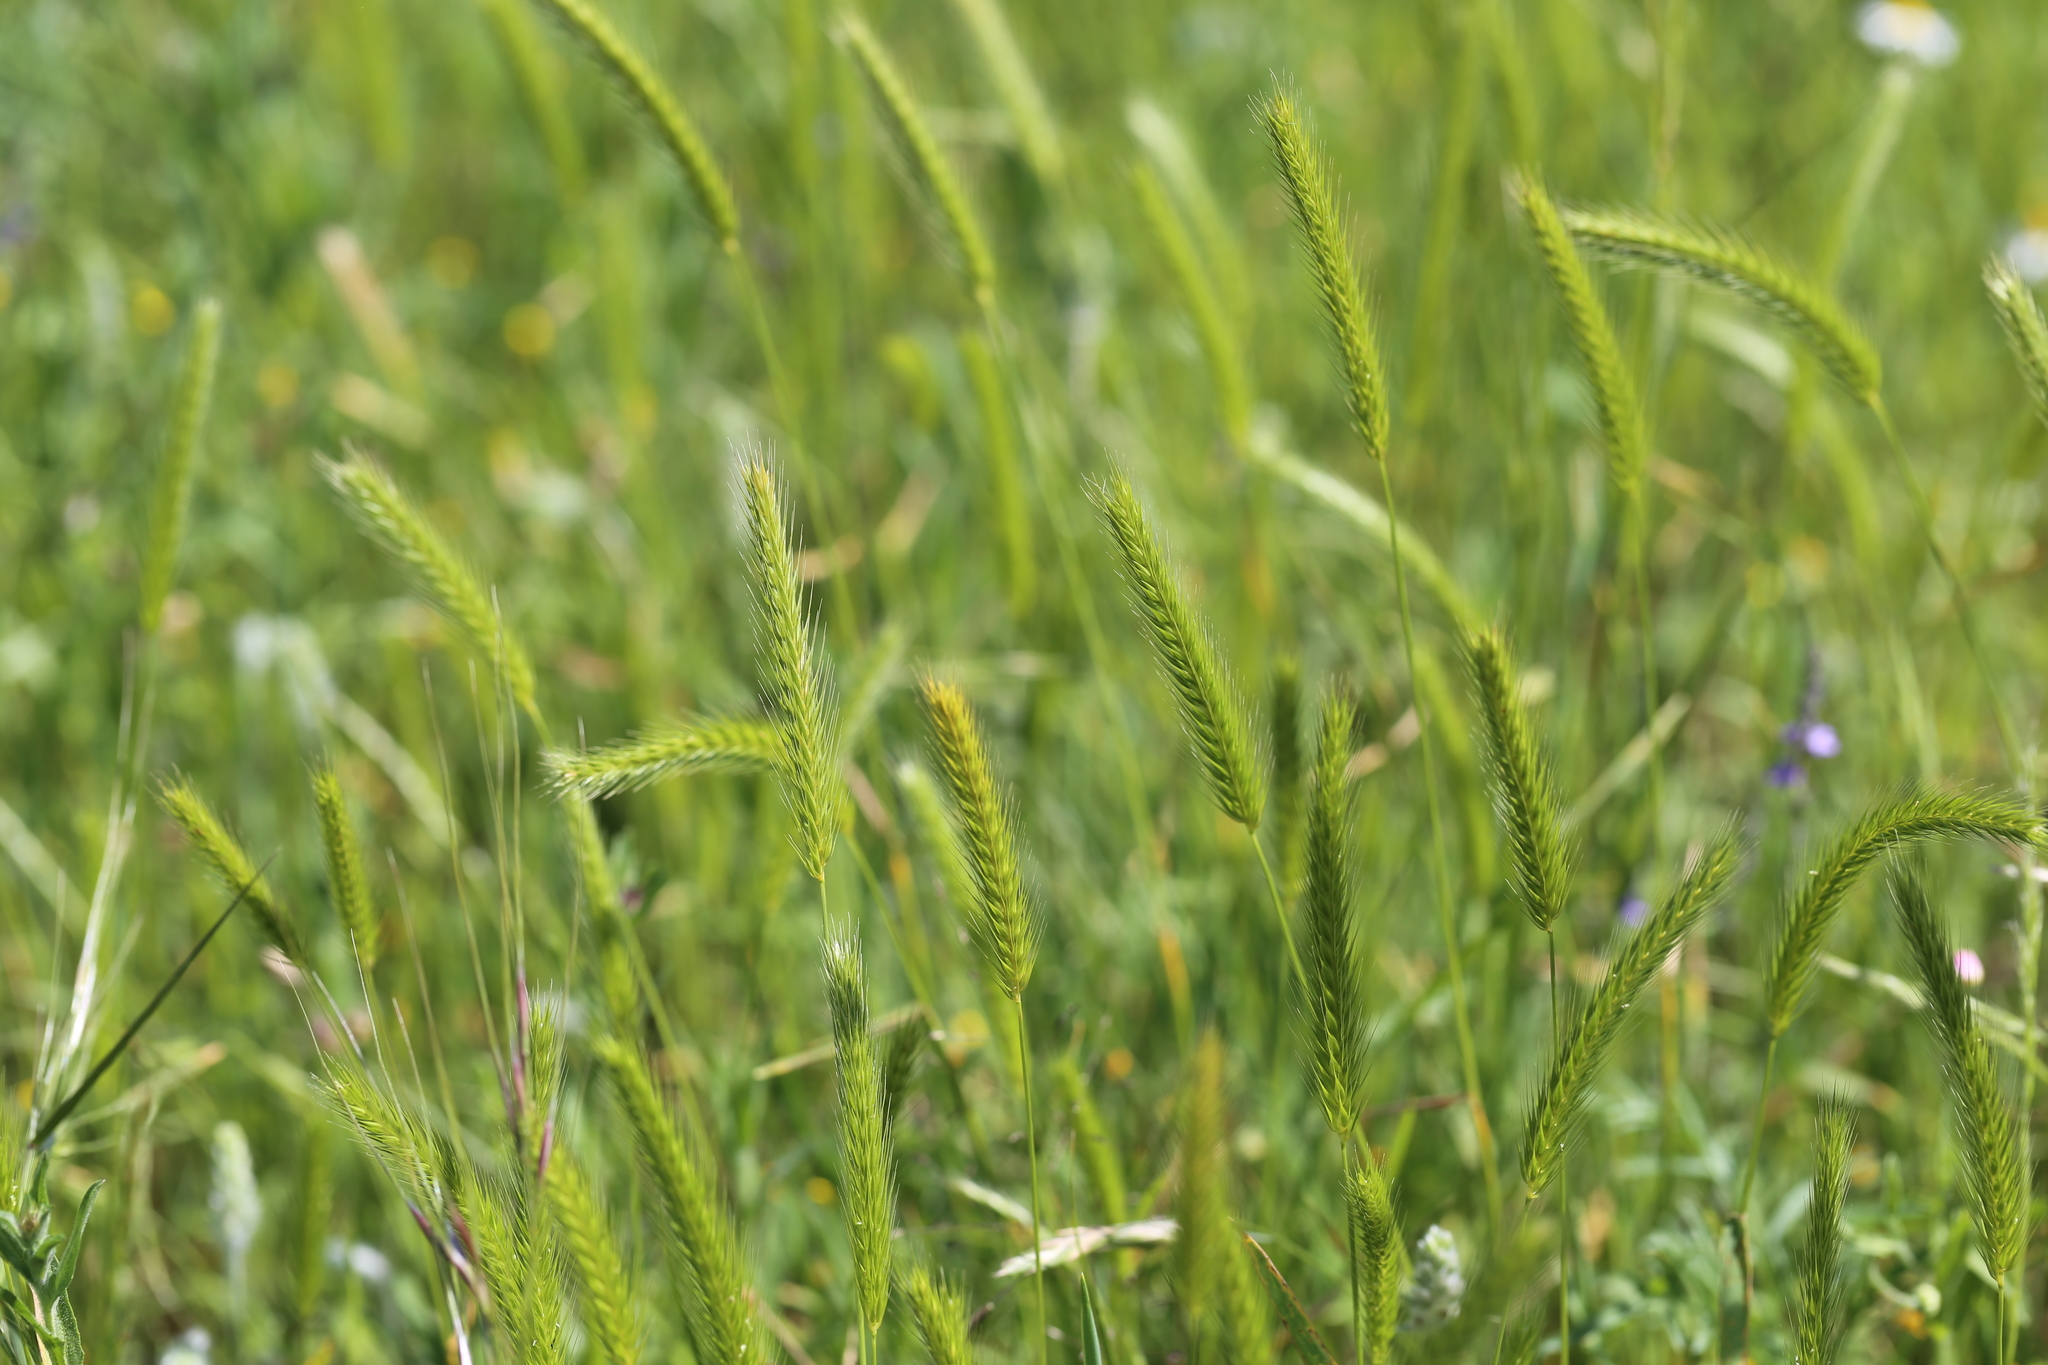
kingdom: Plantae
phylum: Tracheophyta
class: Liliopsida
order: Poales
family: Poaceae
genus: Hordeum
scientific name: Hordeum pusillum
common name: Little barley
